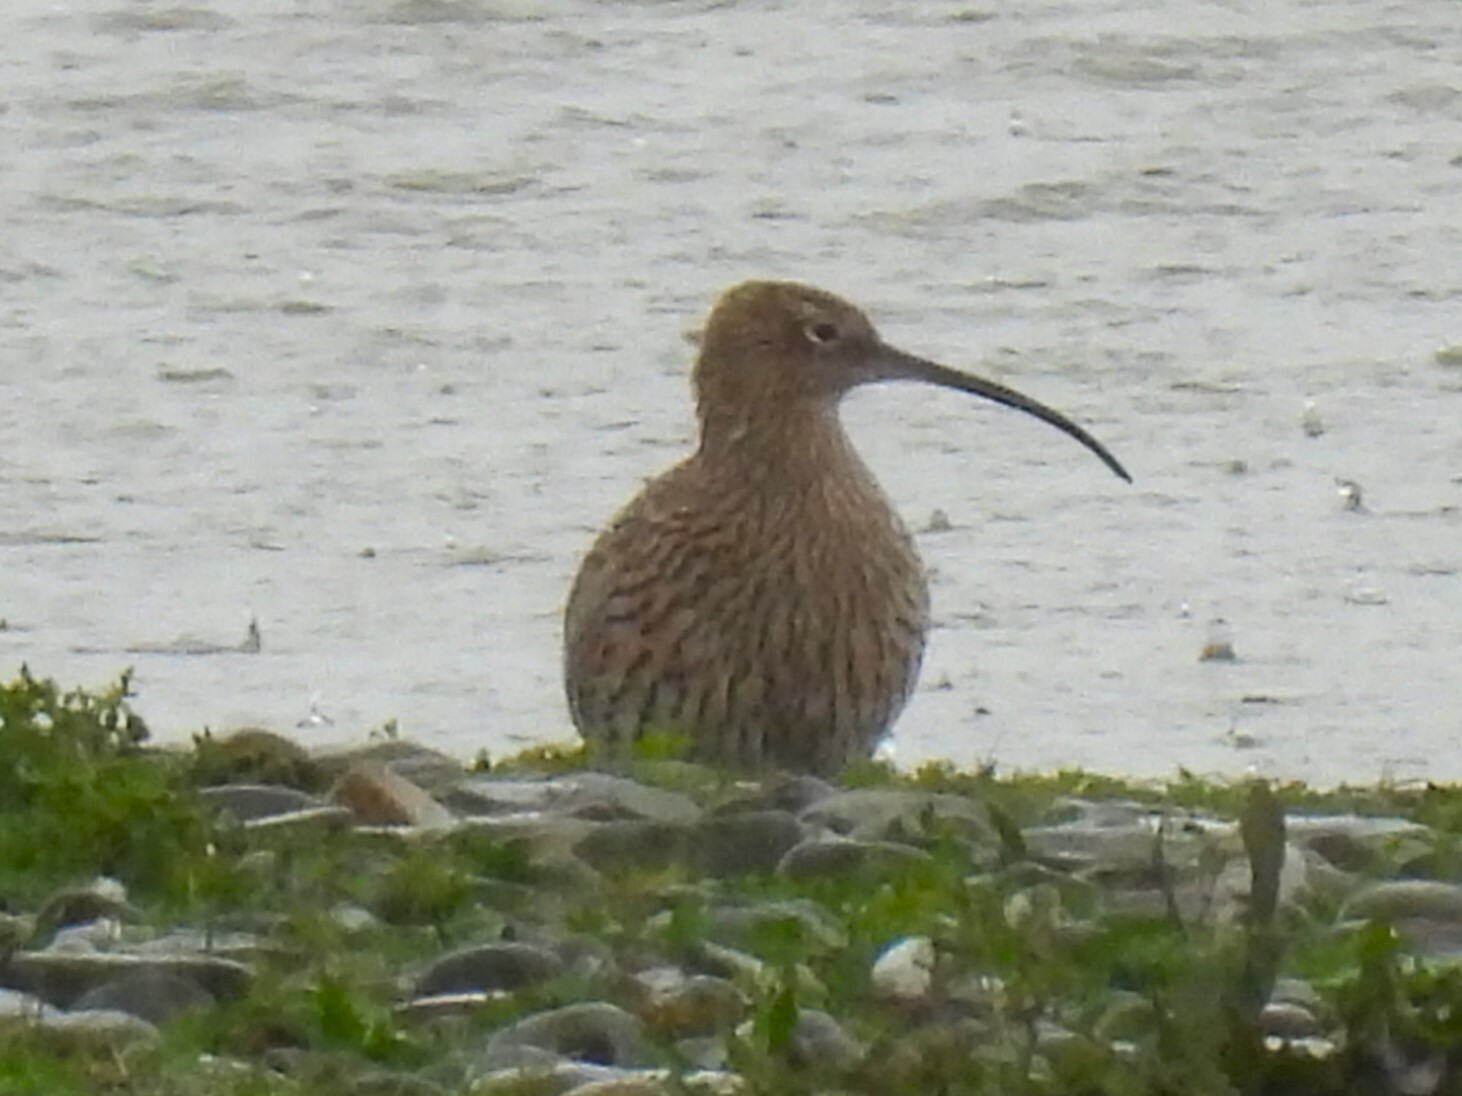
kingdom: Animalia
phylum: Chordata
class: Aves
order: Charadriiformes
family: Scolopacidae
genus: Numenius
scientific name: Numenius arquata
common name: Eurasian curlew
